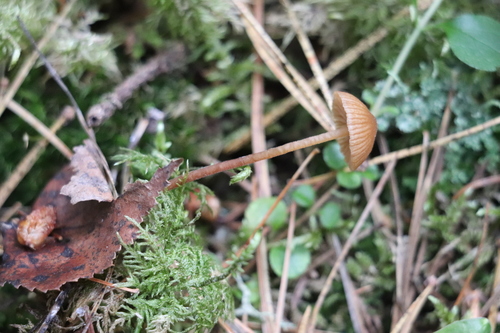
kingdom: Fungi
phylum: Basidiomycota
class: Agaricomycetes
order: Agaricales
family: Hymenogastraceae
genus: Galerina
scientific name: Galerina atkinsoniana
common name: Hairy bell
